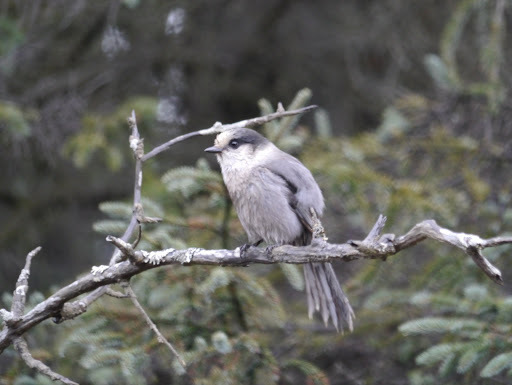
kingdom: Animalia
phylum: Chordata
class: Aves
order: Passeriformes
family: Corvidae
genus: Perisoreus
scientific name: Perisoreus canadensis
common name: Gray jay
